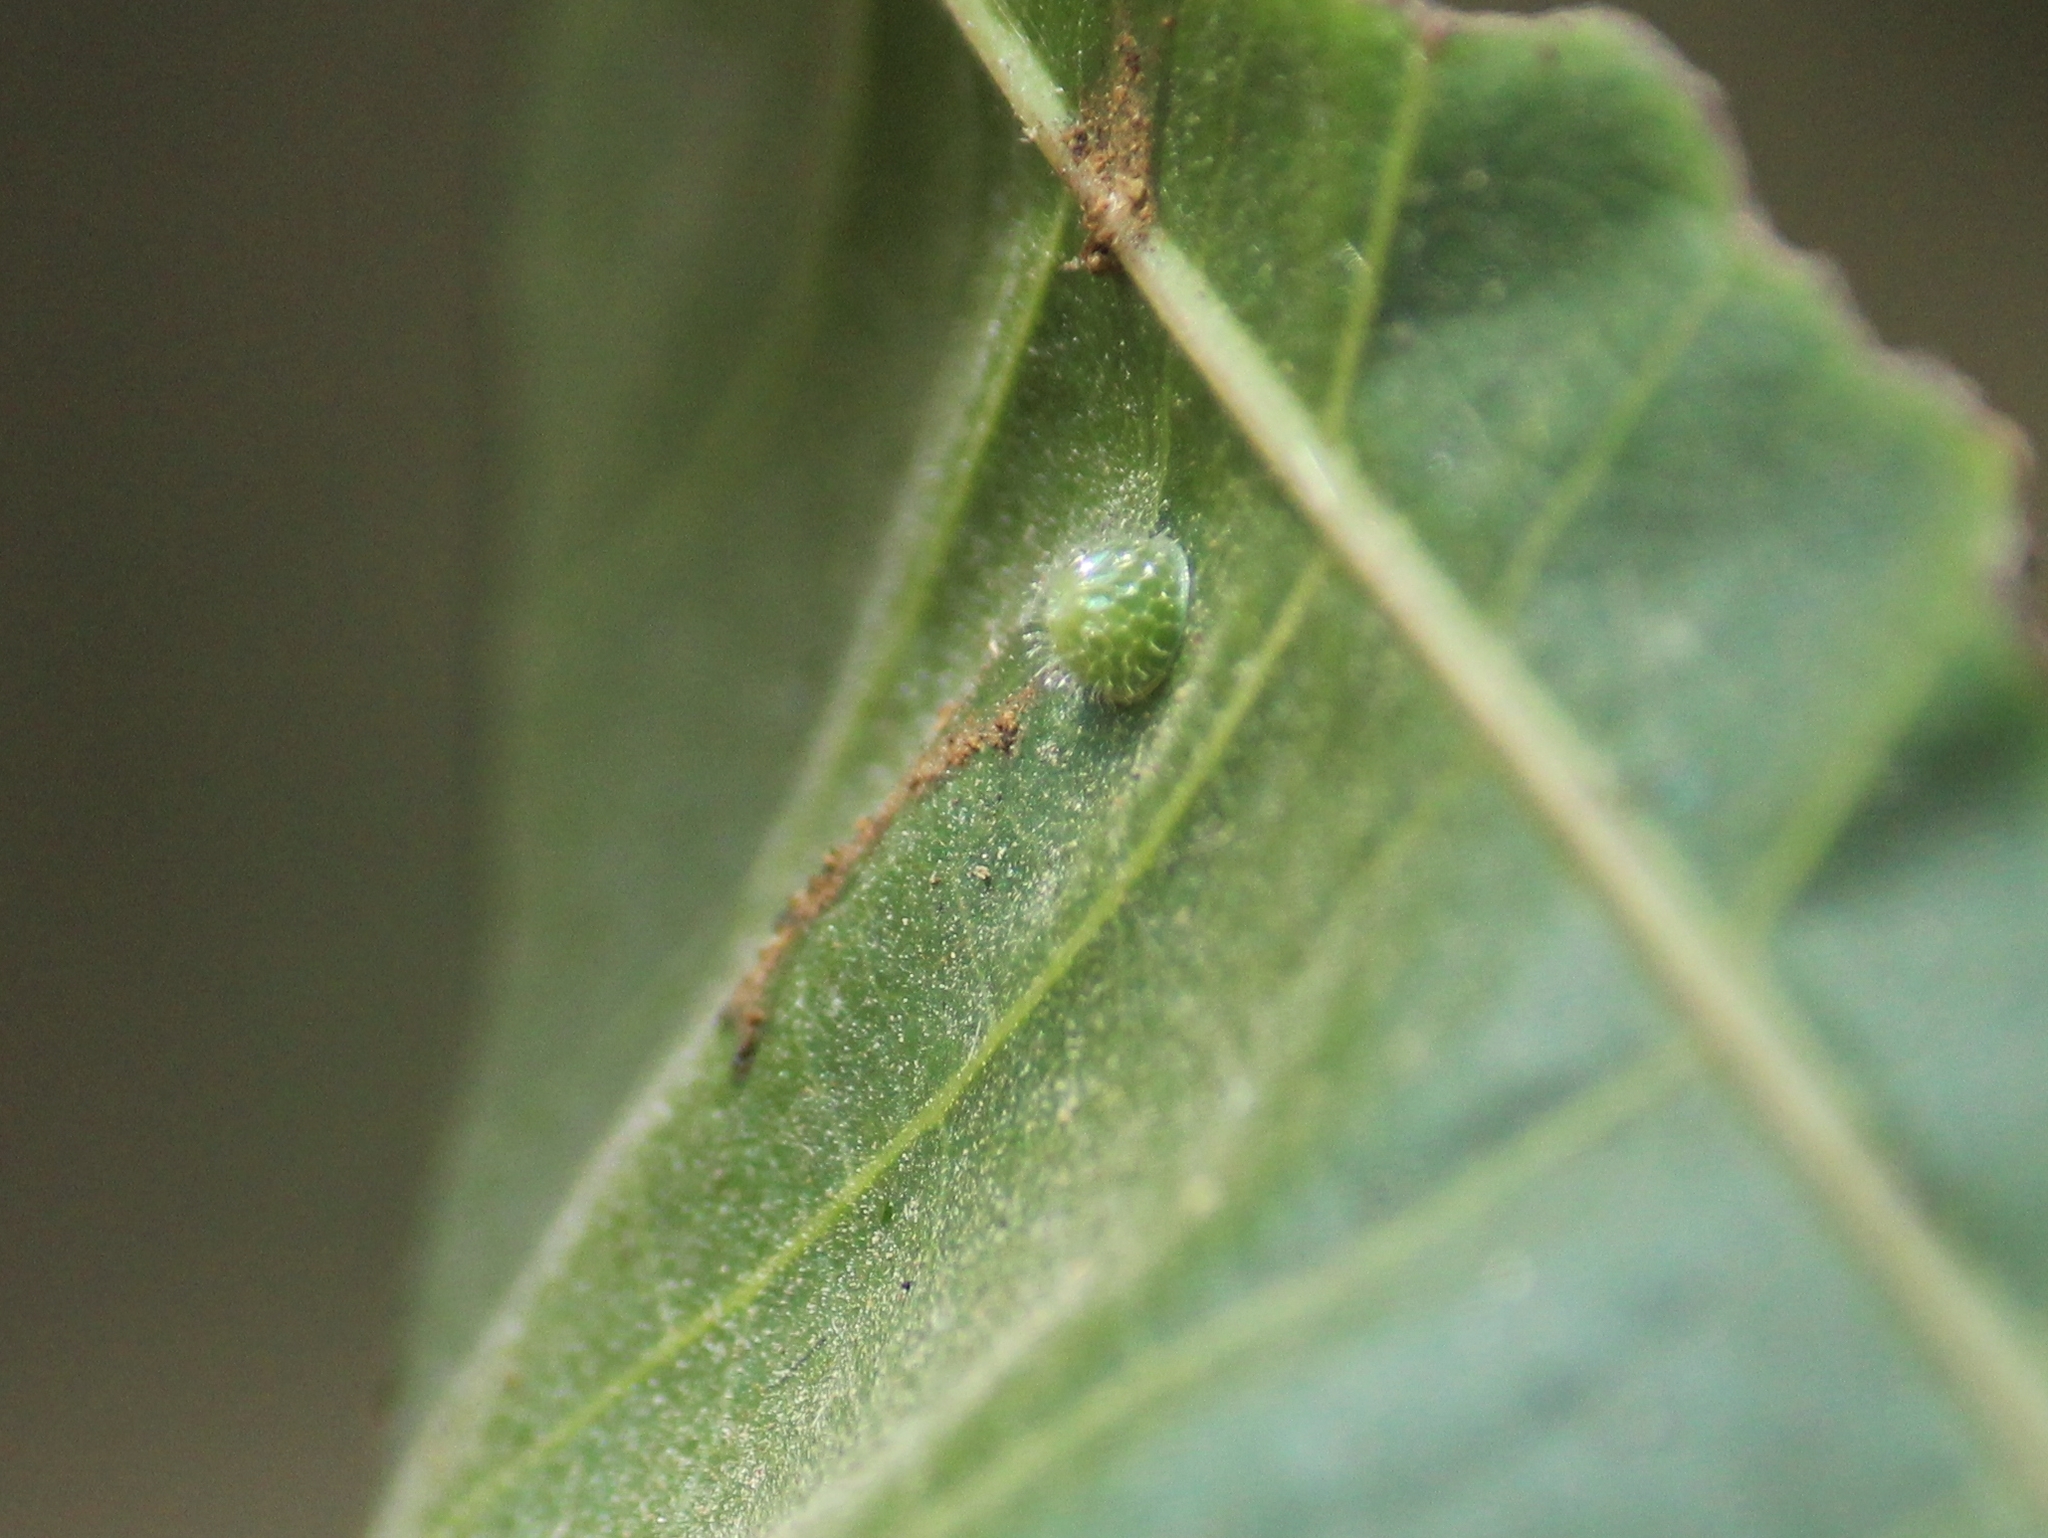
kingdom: Animalia
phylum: Arthropoda
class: Insecta
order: Lepidoptera
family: Nymphalidae
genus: Euthalia
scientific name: Euthalia aconthea
